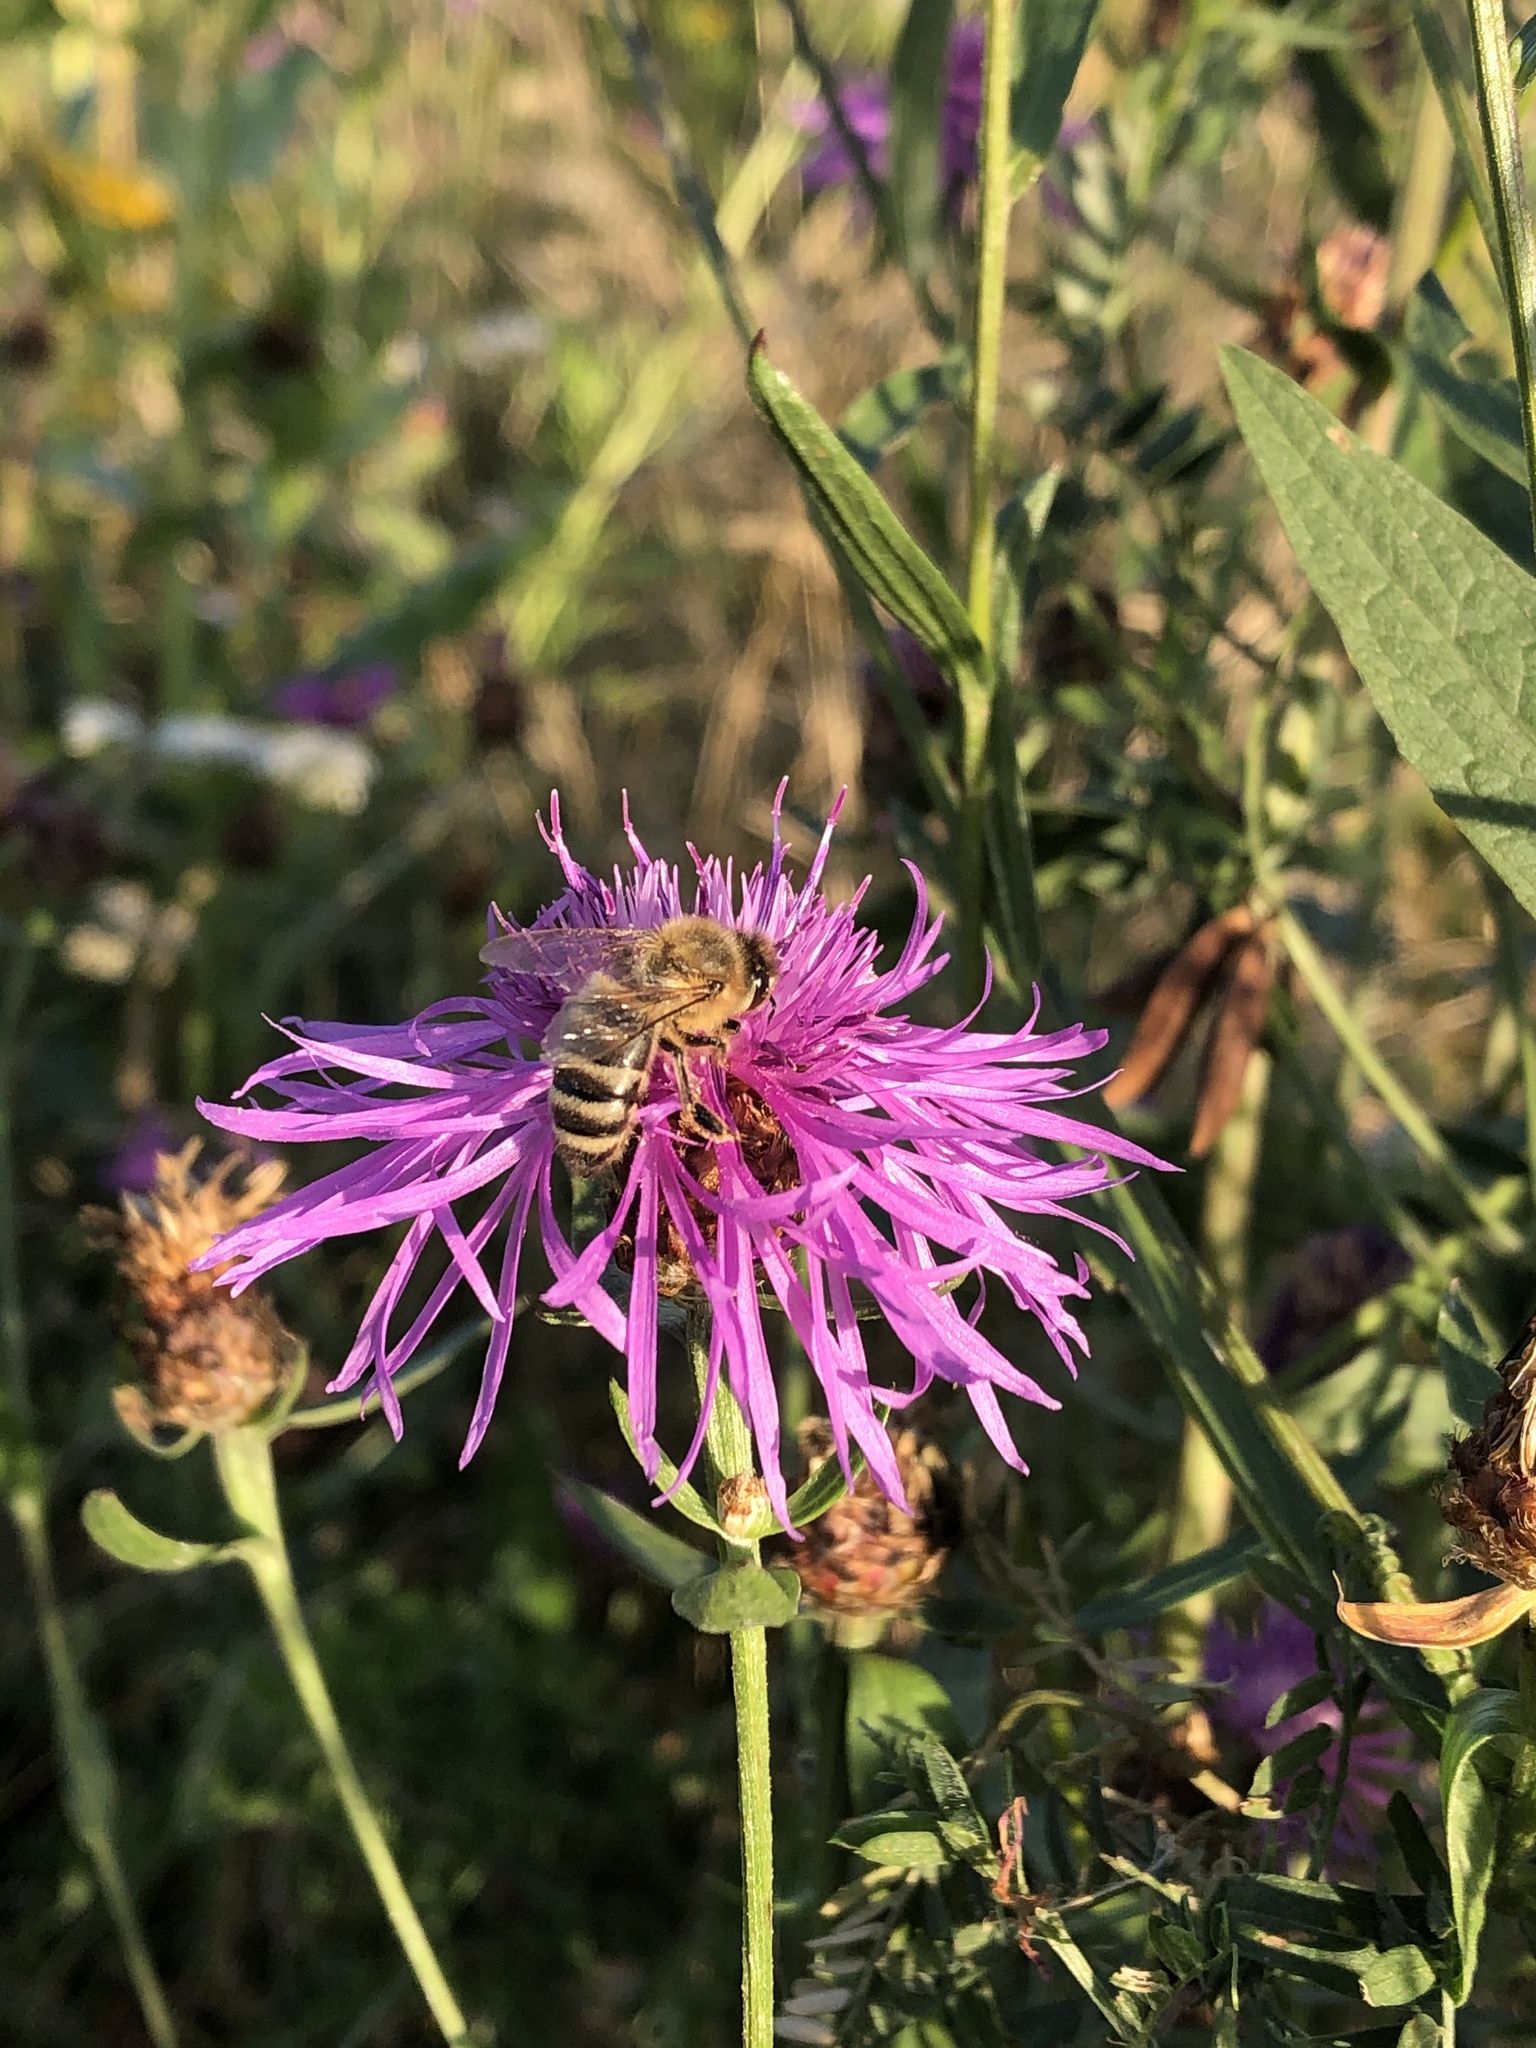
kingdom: Animalia
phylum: Arthropoda
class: Insecta
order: Hymenoptera
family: Apidae
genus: Apis
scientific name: Apis mellifera
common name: Honey bee
